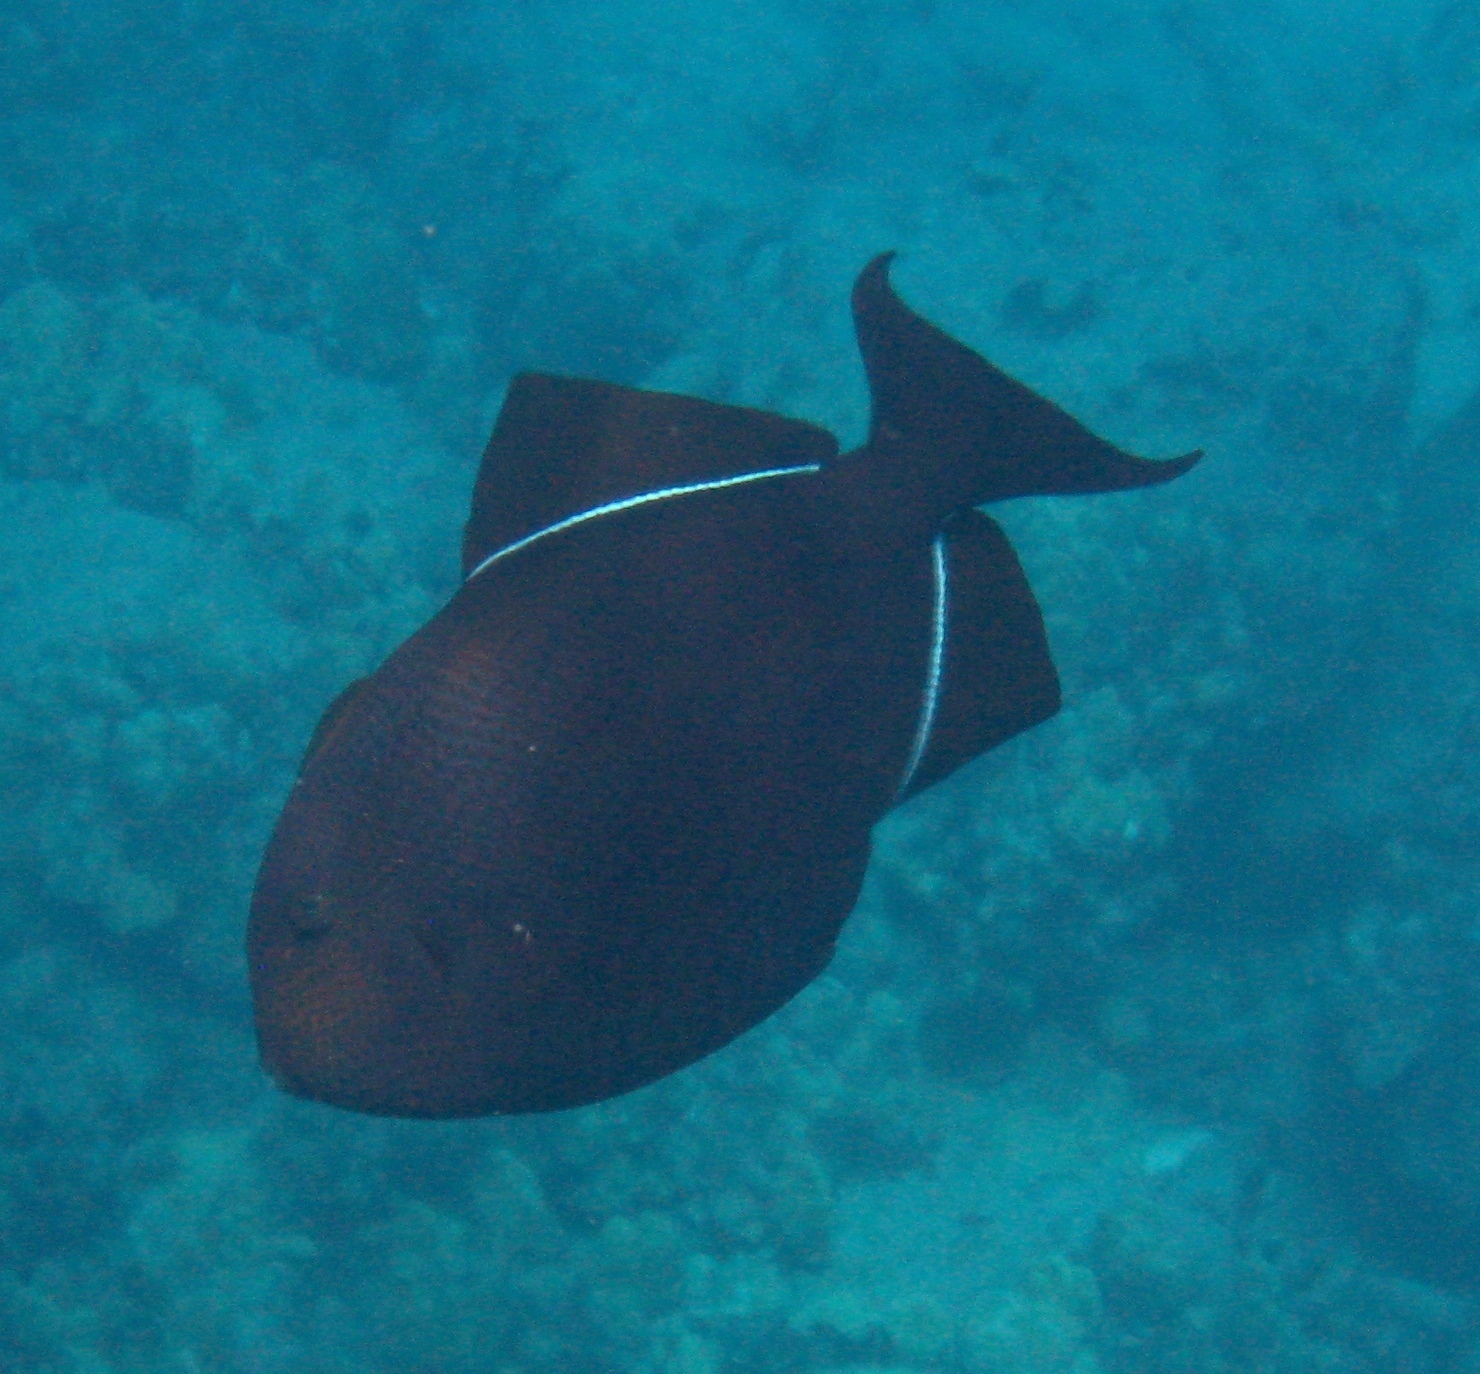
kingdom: Animalia
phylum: Chordata
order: Tetraodontiformes
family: Balistidae
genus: Melichthys
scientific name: Melichthys niger
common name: Black durgon
